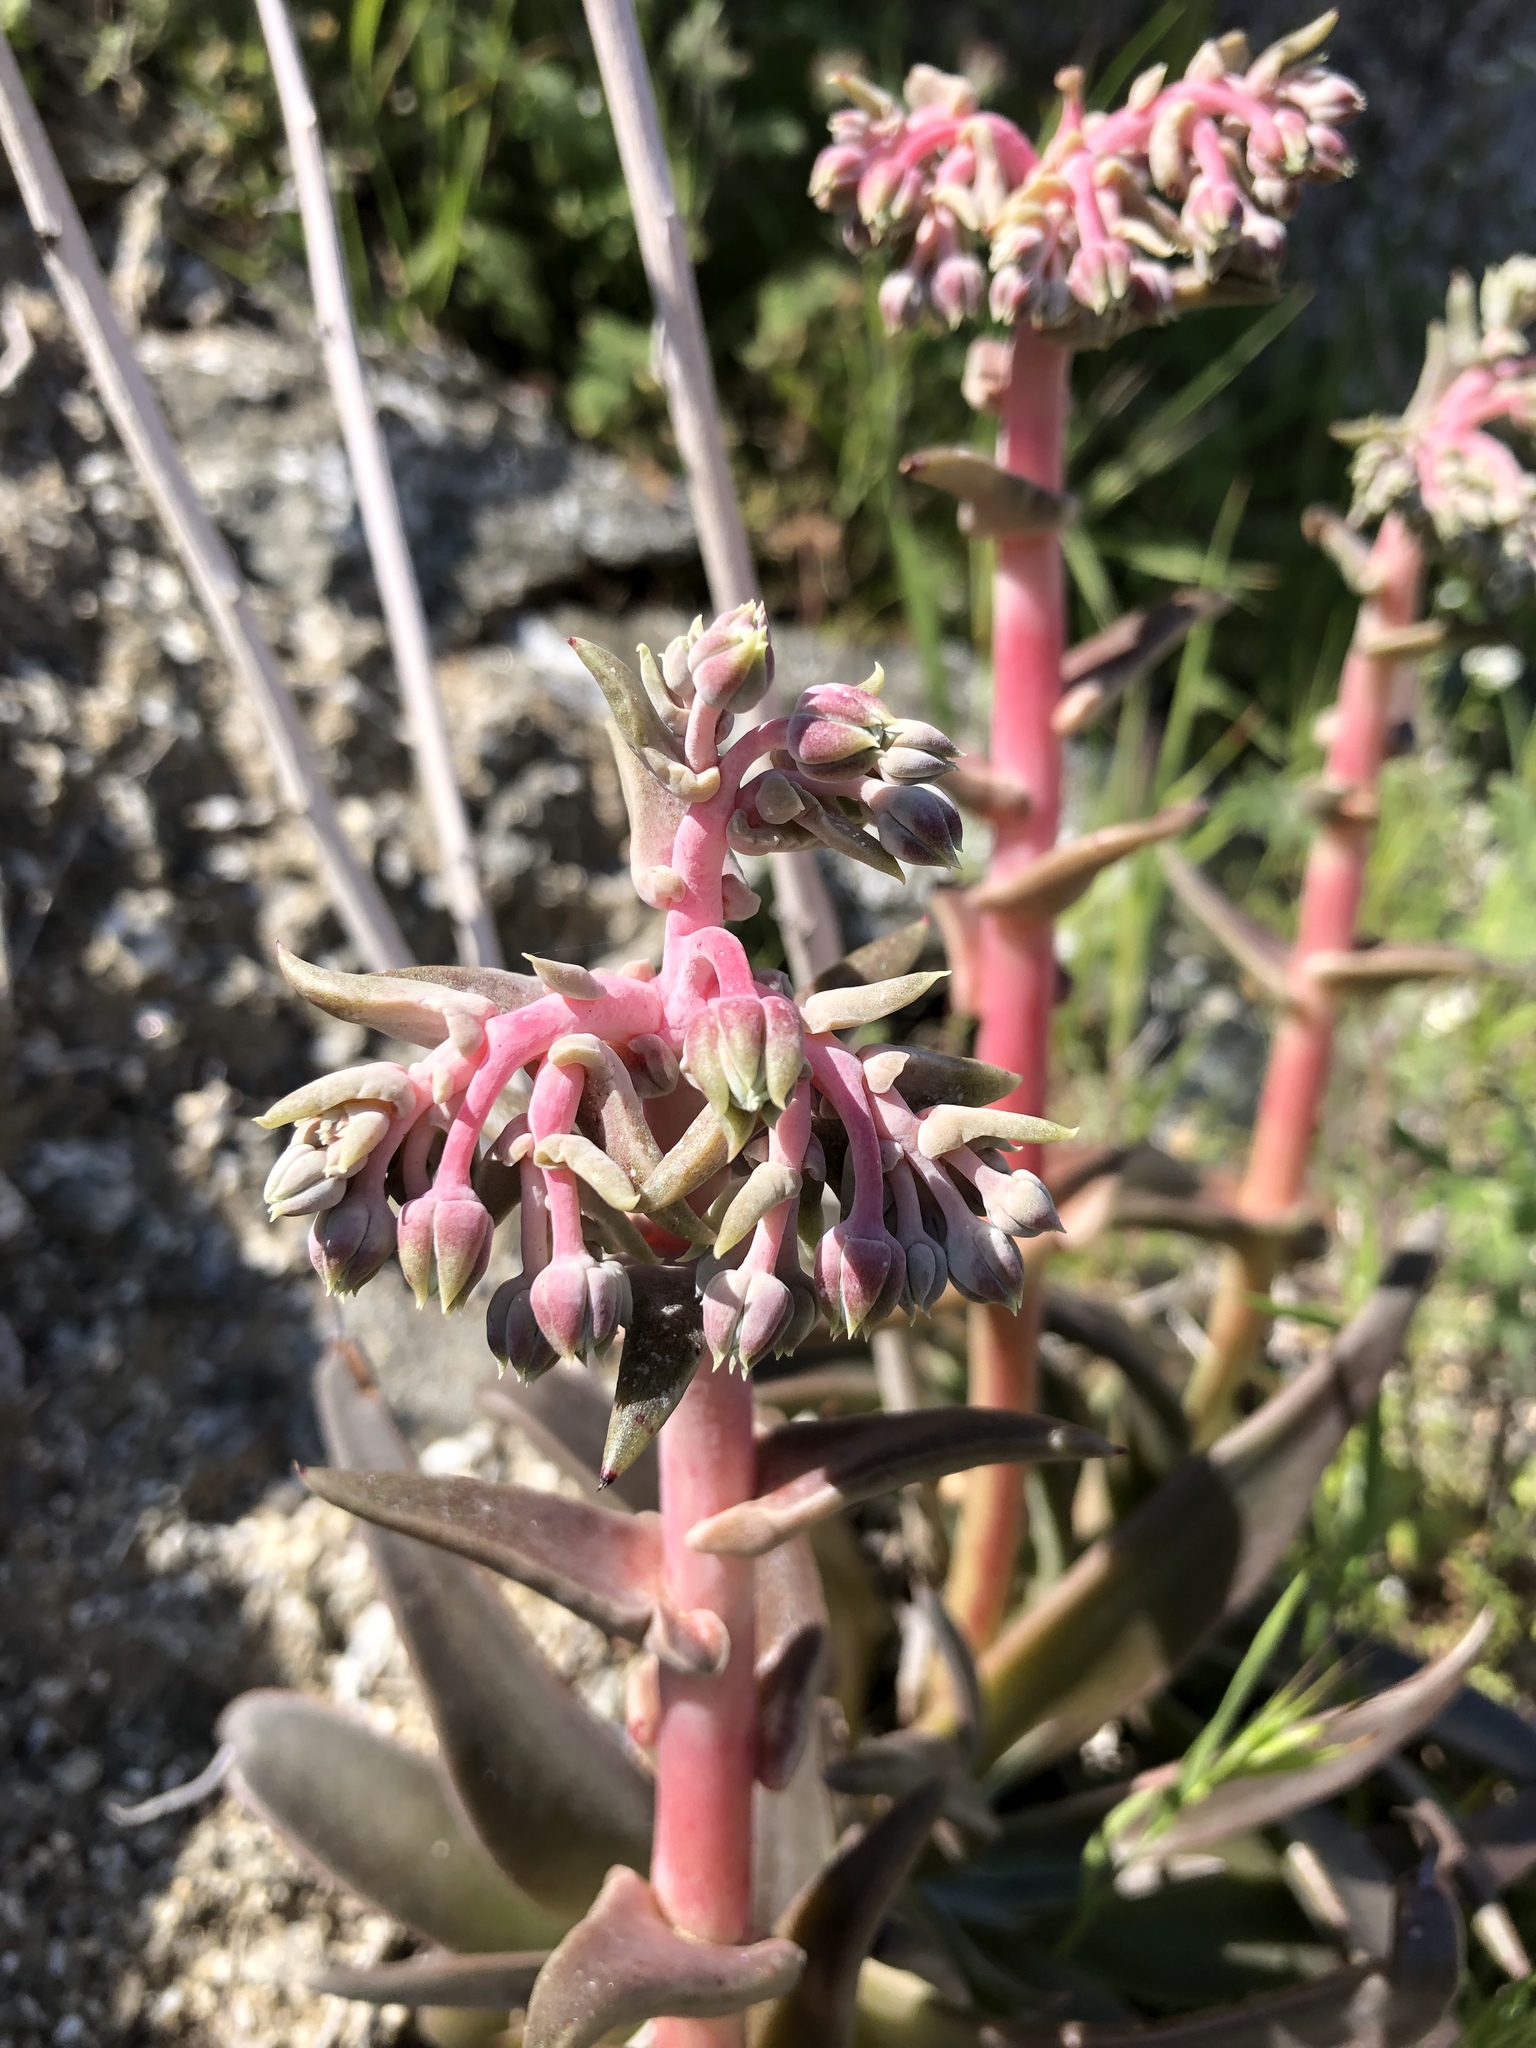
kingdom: Plantae
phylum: Tracheophyta
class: Magnoliopsida
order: Saxifragales
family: Crassulaceae
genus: Dudleya
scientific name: Dudleya saxosa
